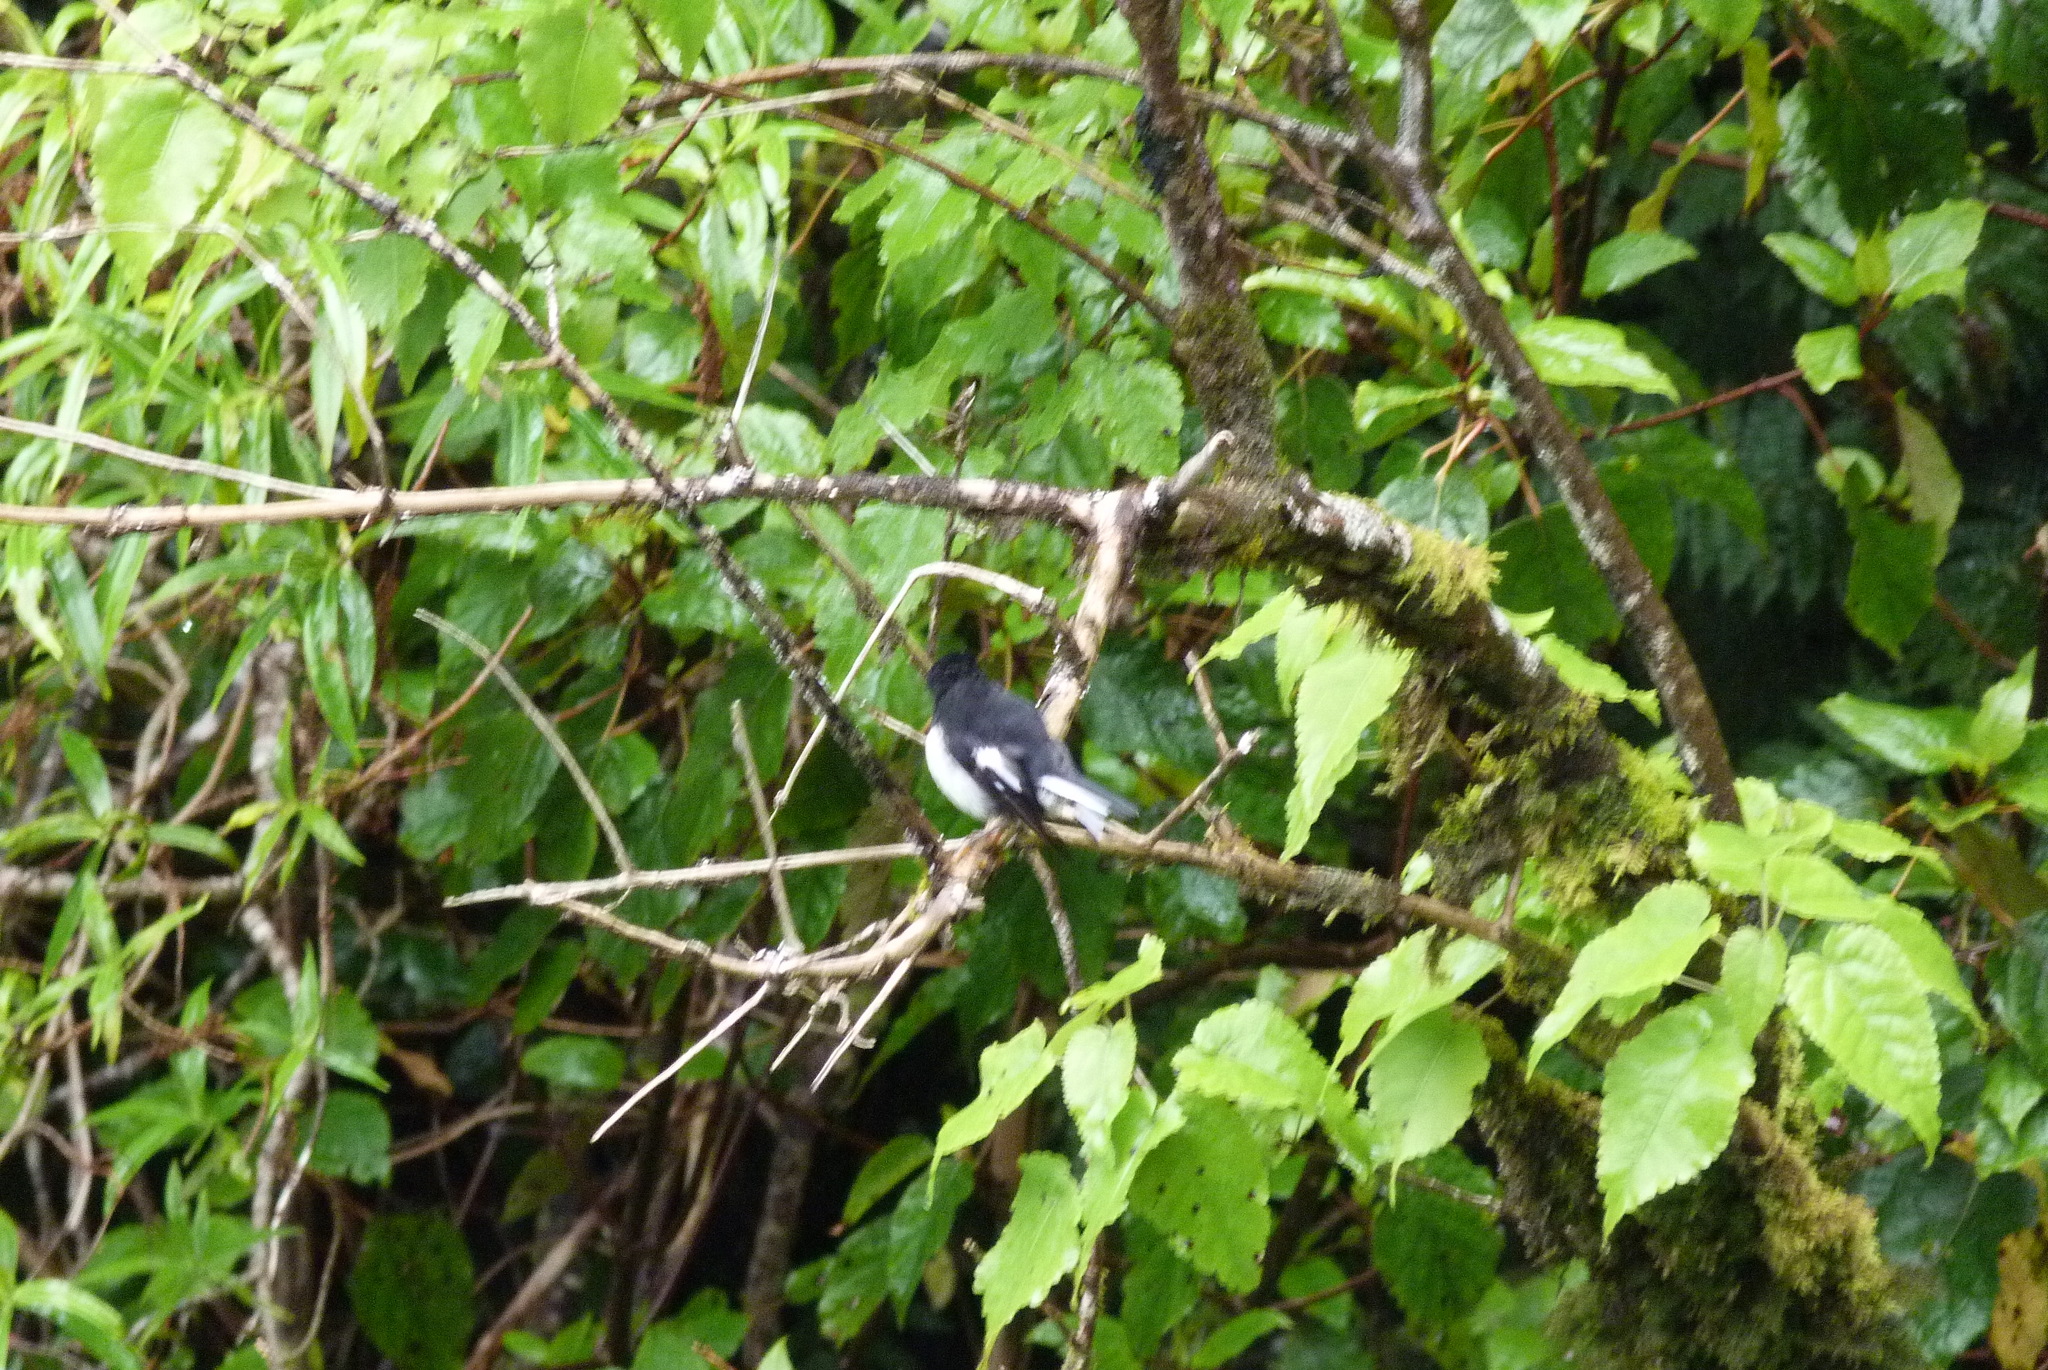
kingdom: Animalia
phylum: Chordata
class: Aves
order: Passeriformes
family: Petroicidae
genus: Petroica
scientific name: Petroica macrocephala
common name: Tomtit
